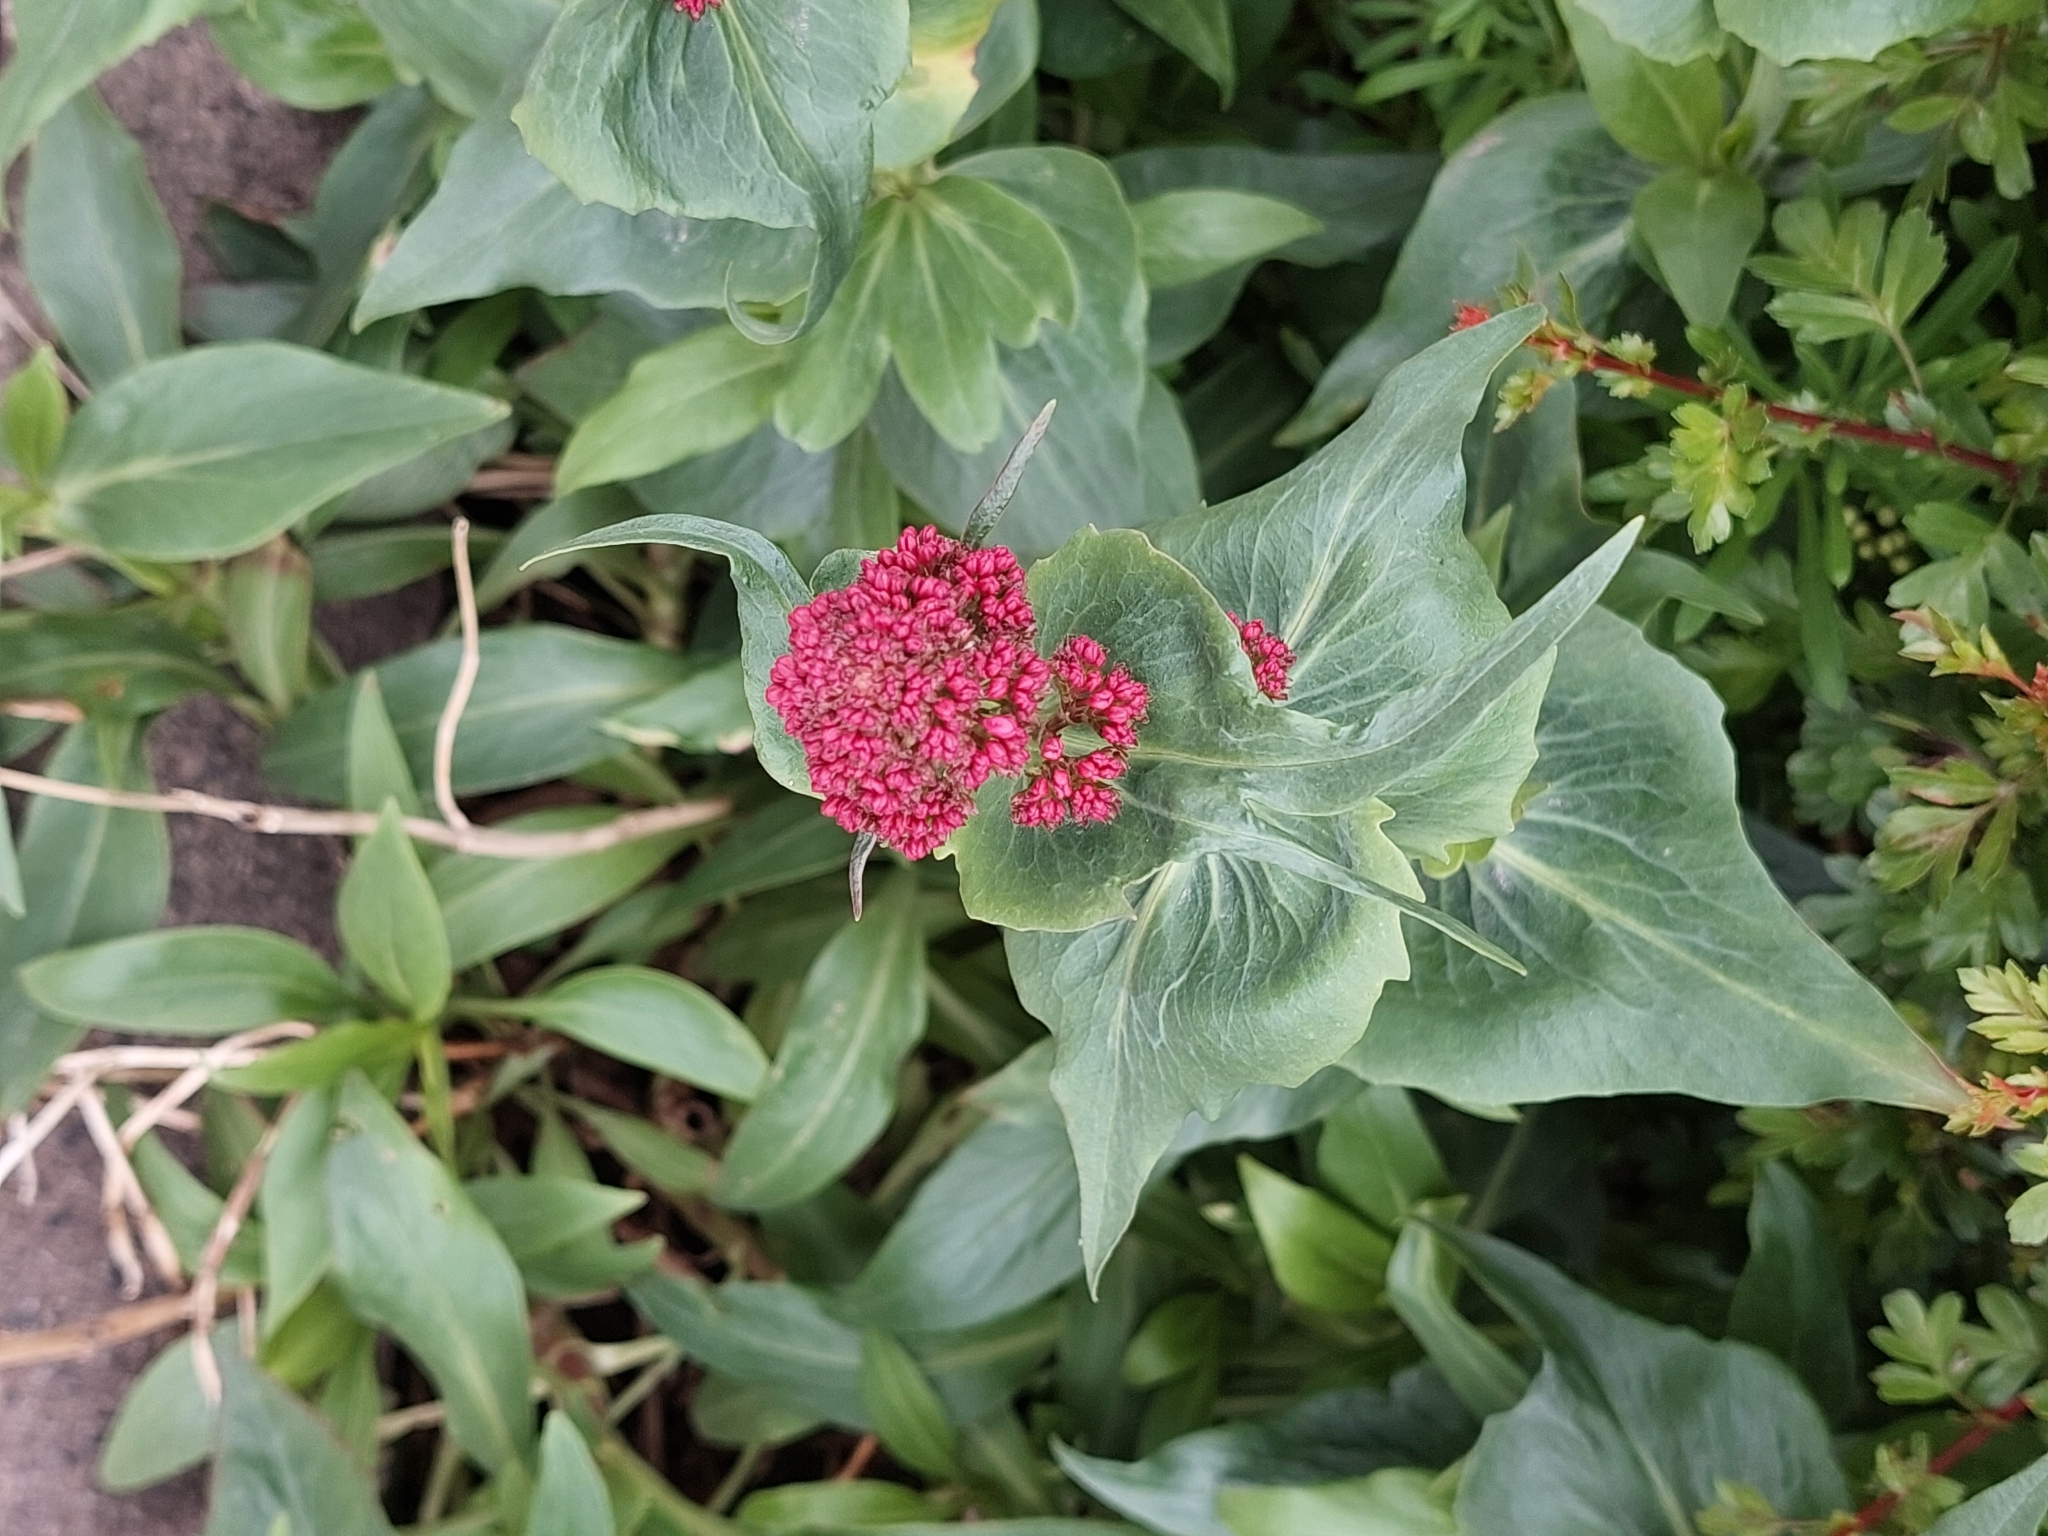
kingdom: Plantae
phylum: Tracheophyta
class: Magnoliopsida
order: Dipsacales
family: Caprifoliaceae
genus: Centranthus
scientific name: Centranthus ruber
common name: Red valerian
